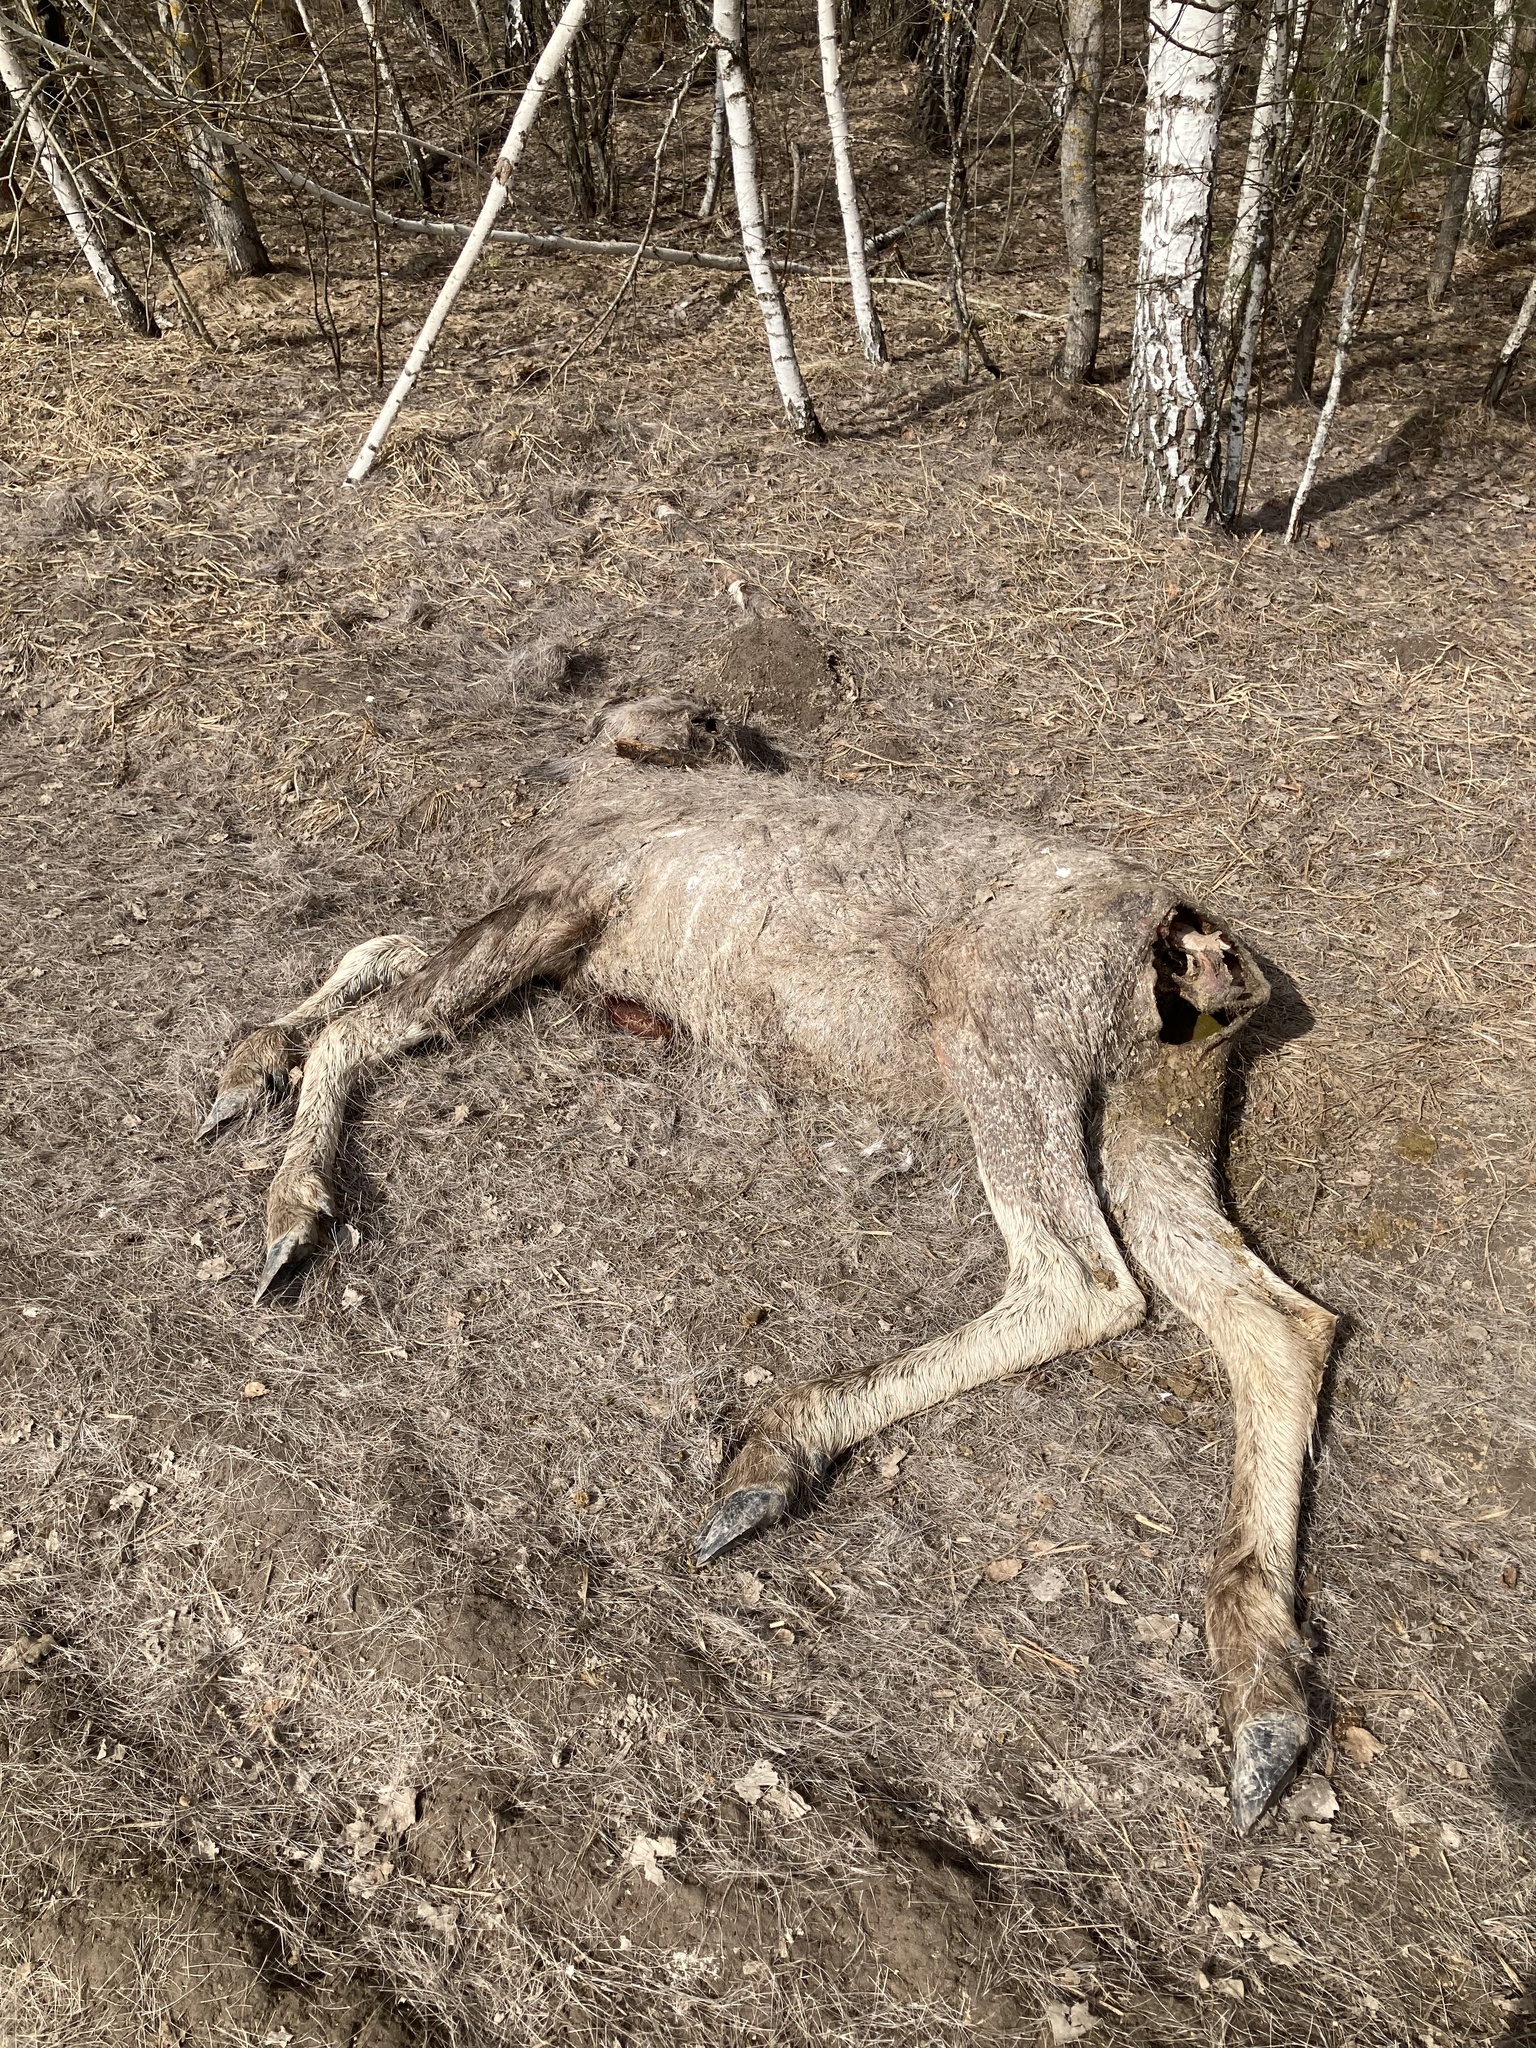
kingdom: Animalia
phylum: Chordata
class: Mammalia
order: Artiodactyla
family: Cervidae
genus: Alces
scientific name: Alces alces
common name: Moose
